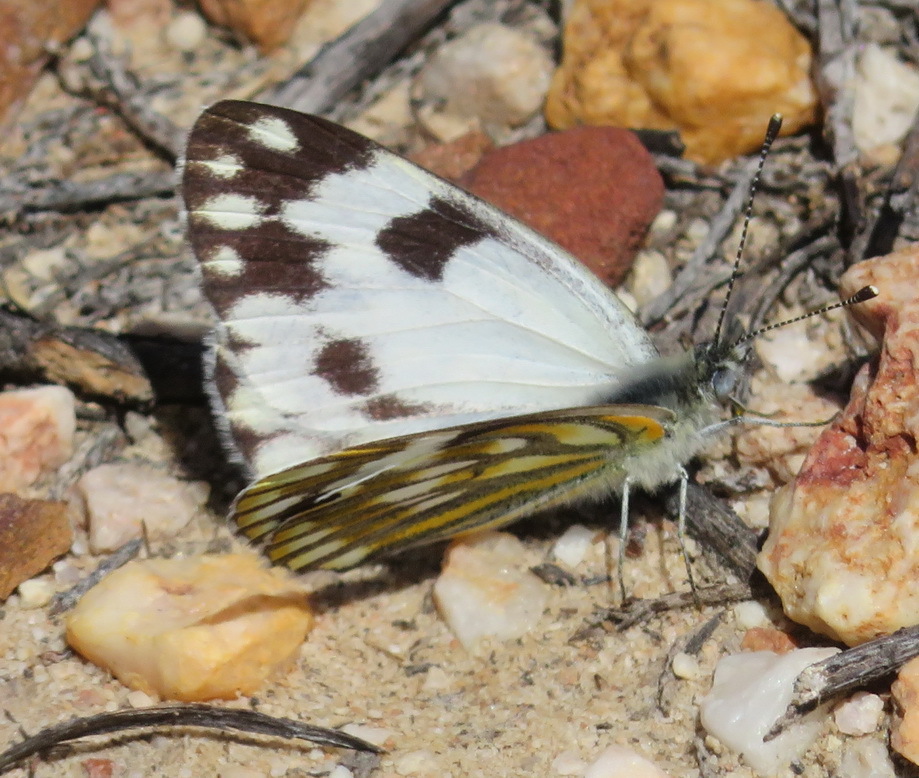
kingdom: Animalia
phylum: Arthropoda
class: Insecta
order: Lepidoptera
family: Pieridae
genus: Pontia
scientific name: Pontia helice
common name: Meadow white
